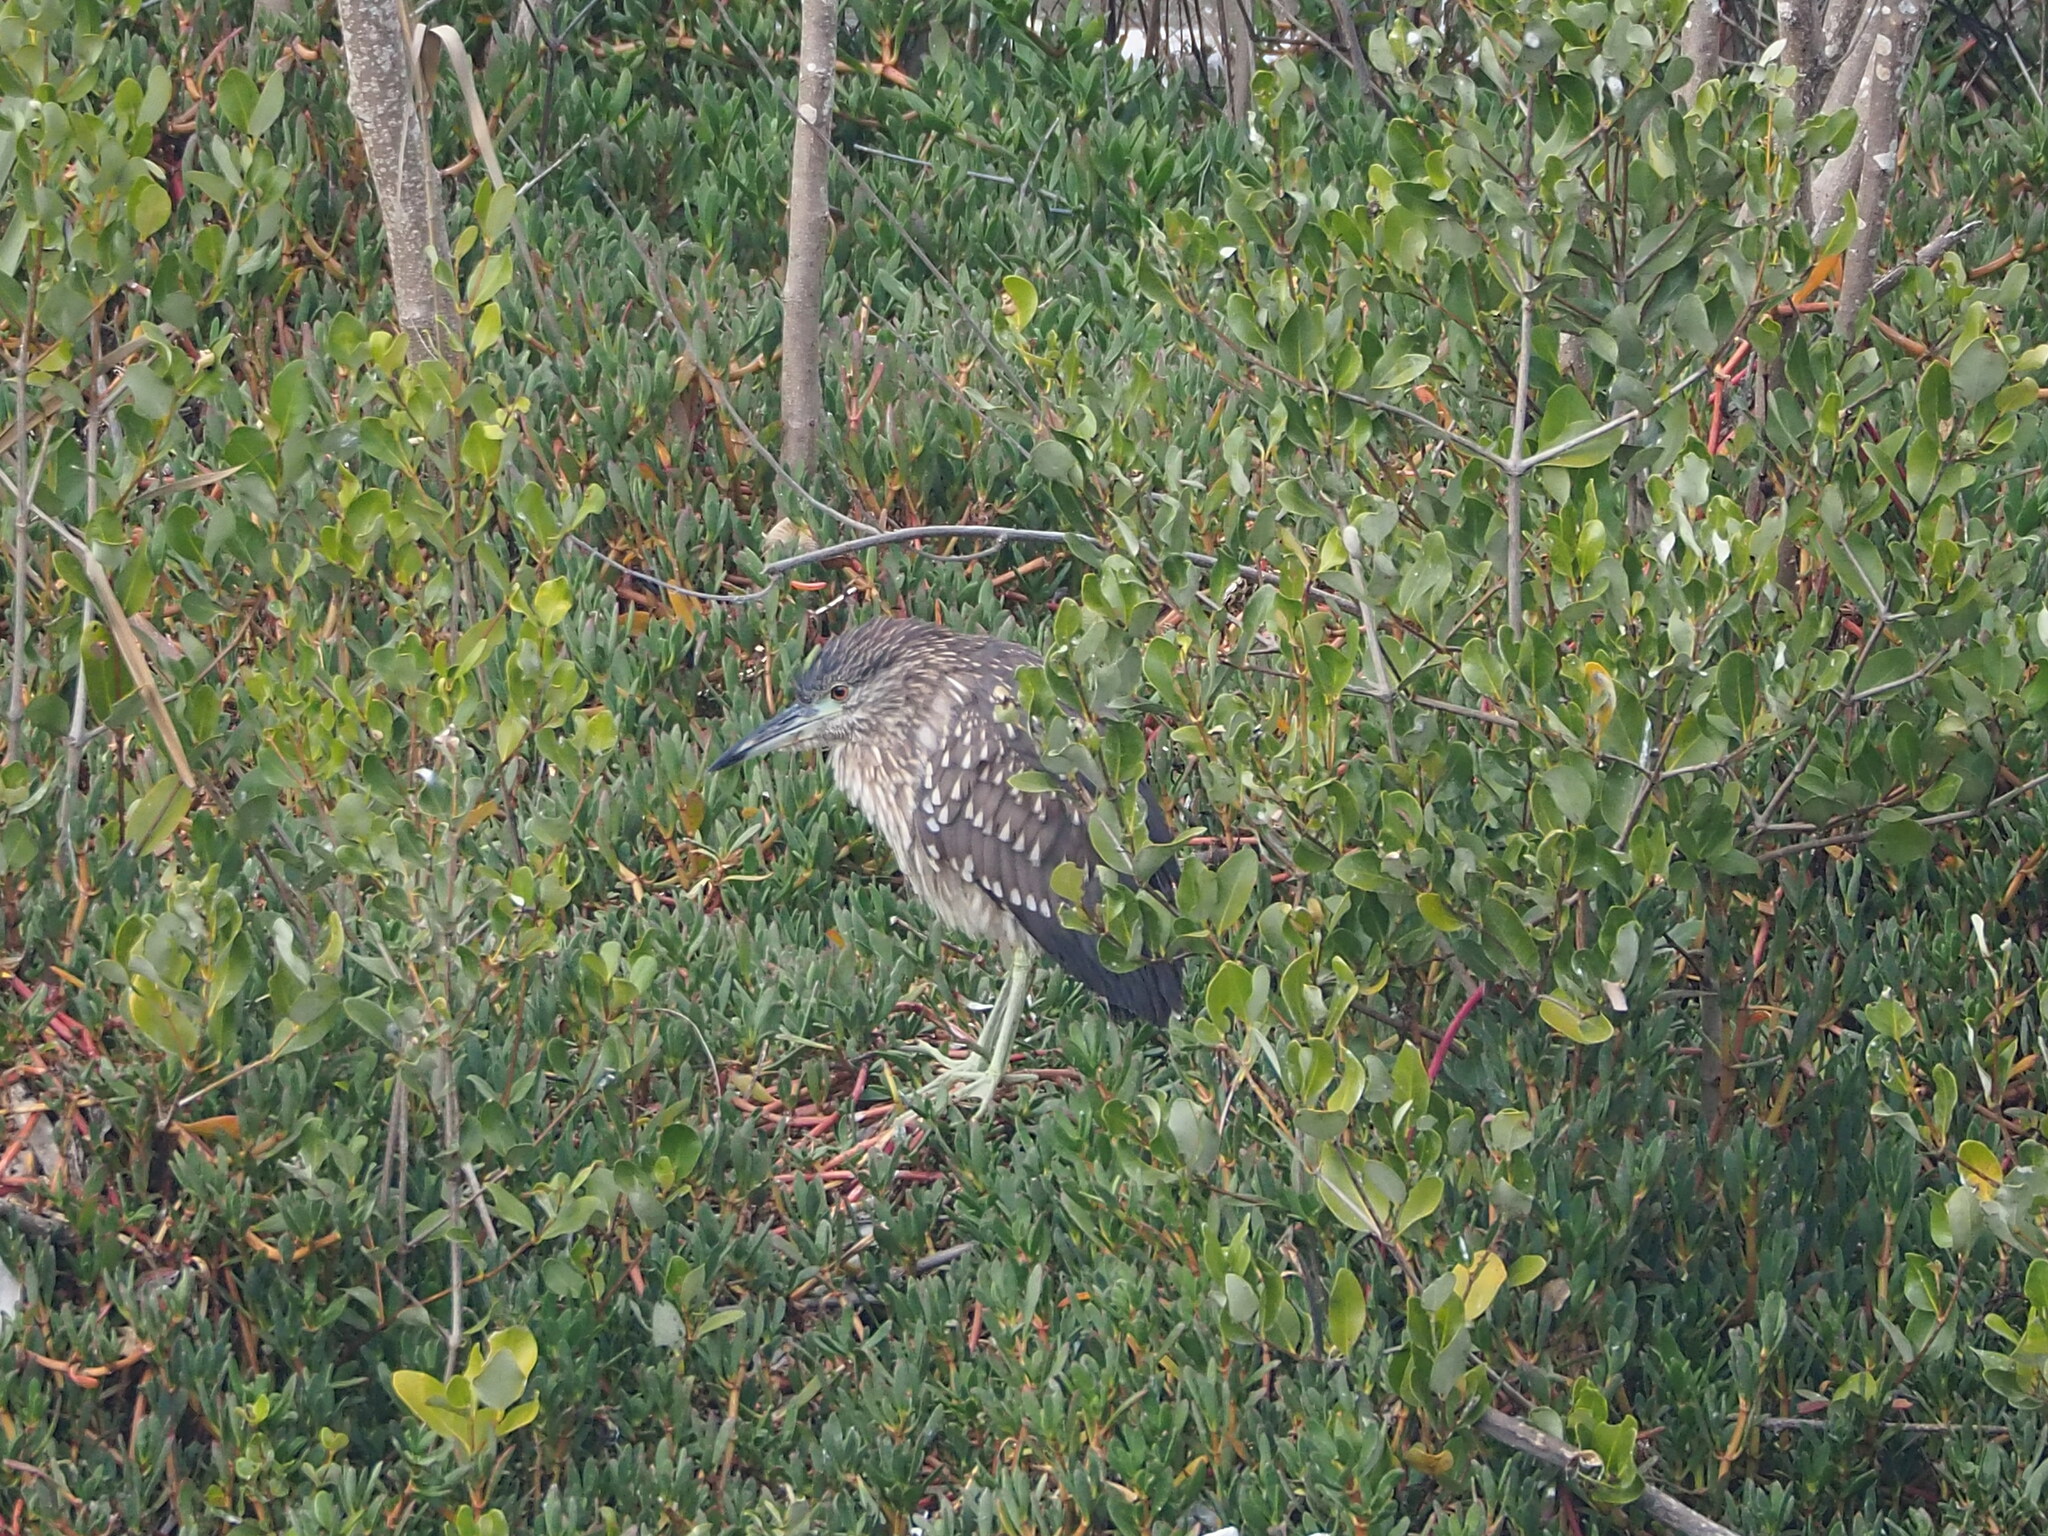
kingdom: Animalia
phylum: Chordata
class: Aves
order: Pelecaniformes
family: Ardeidae
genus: Nycticorax
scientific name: Nycticorax nycticorax
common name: Black-crowned night heron
